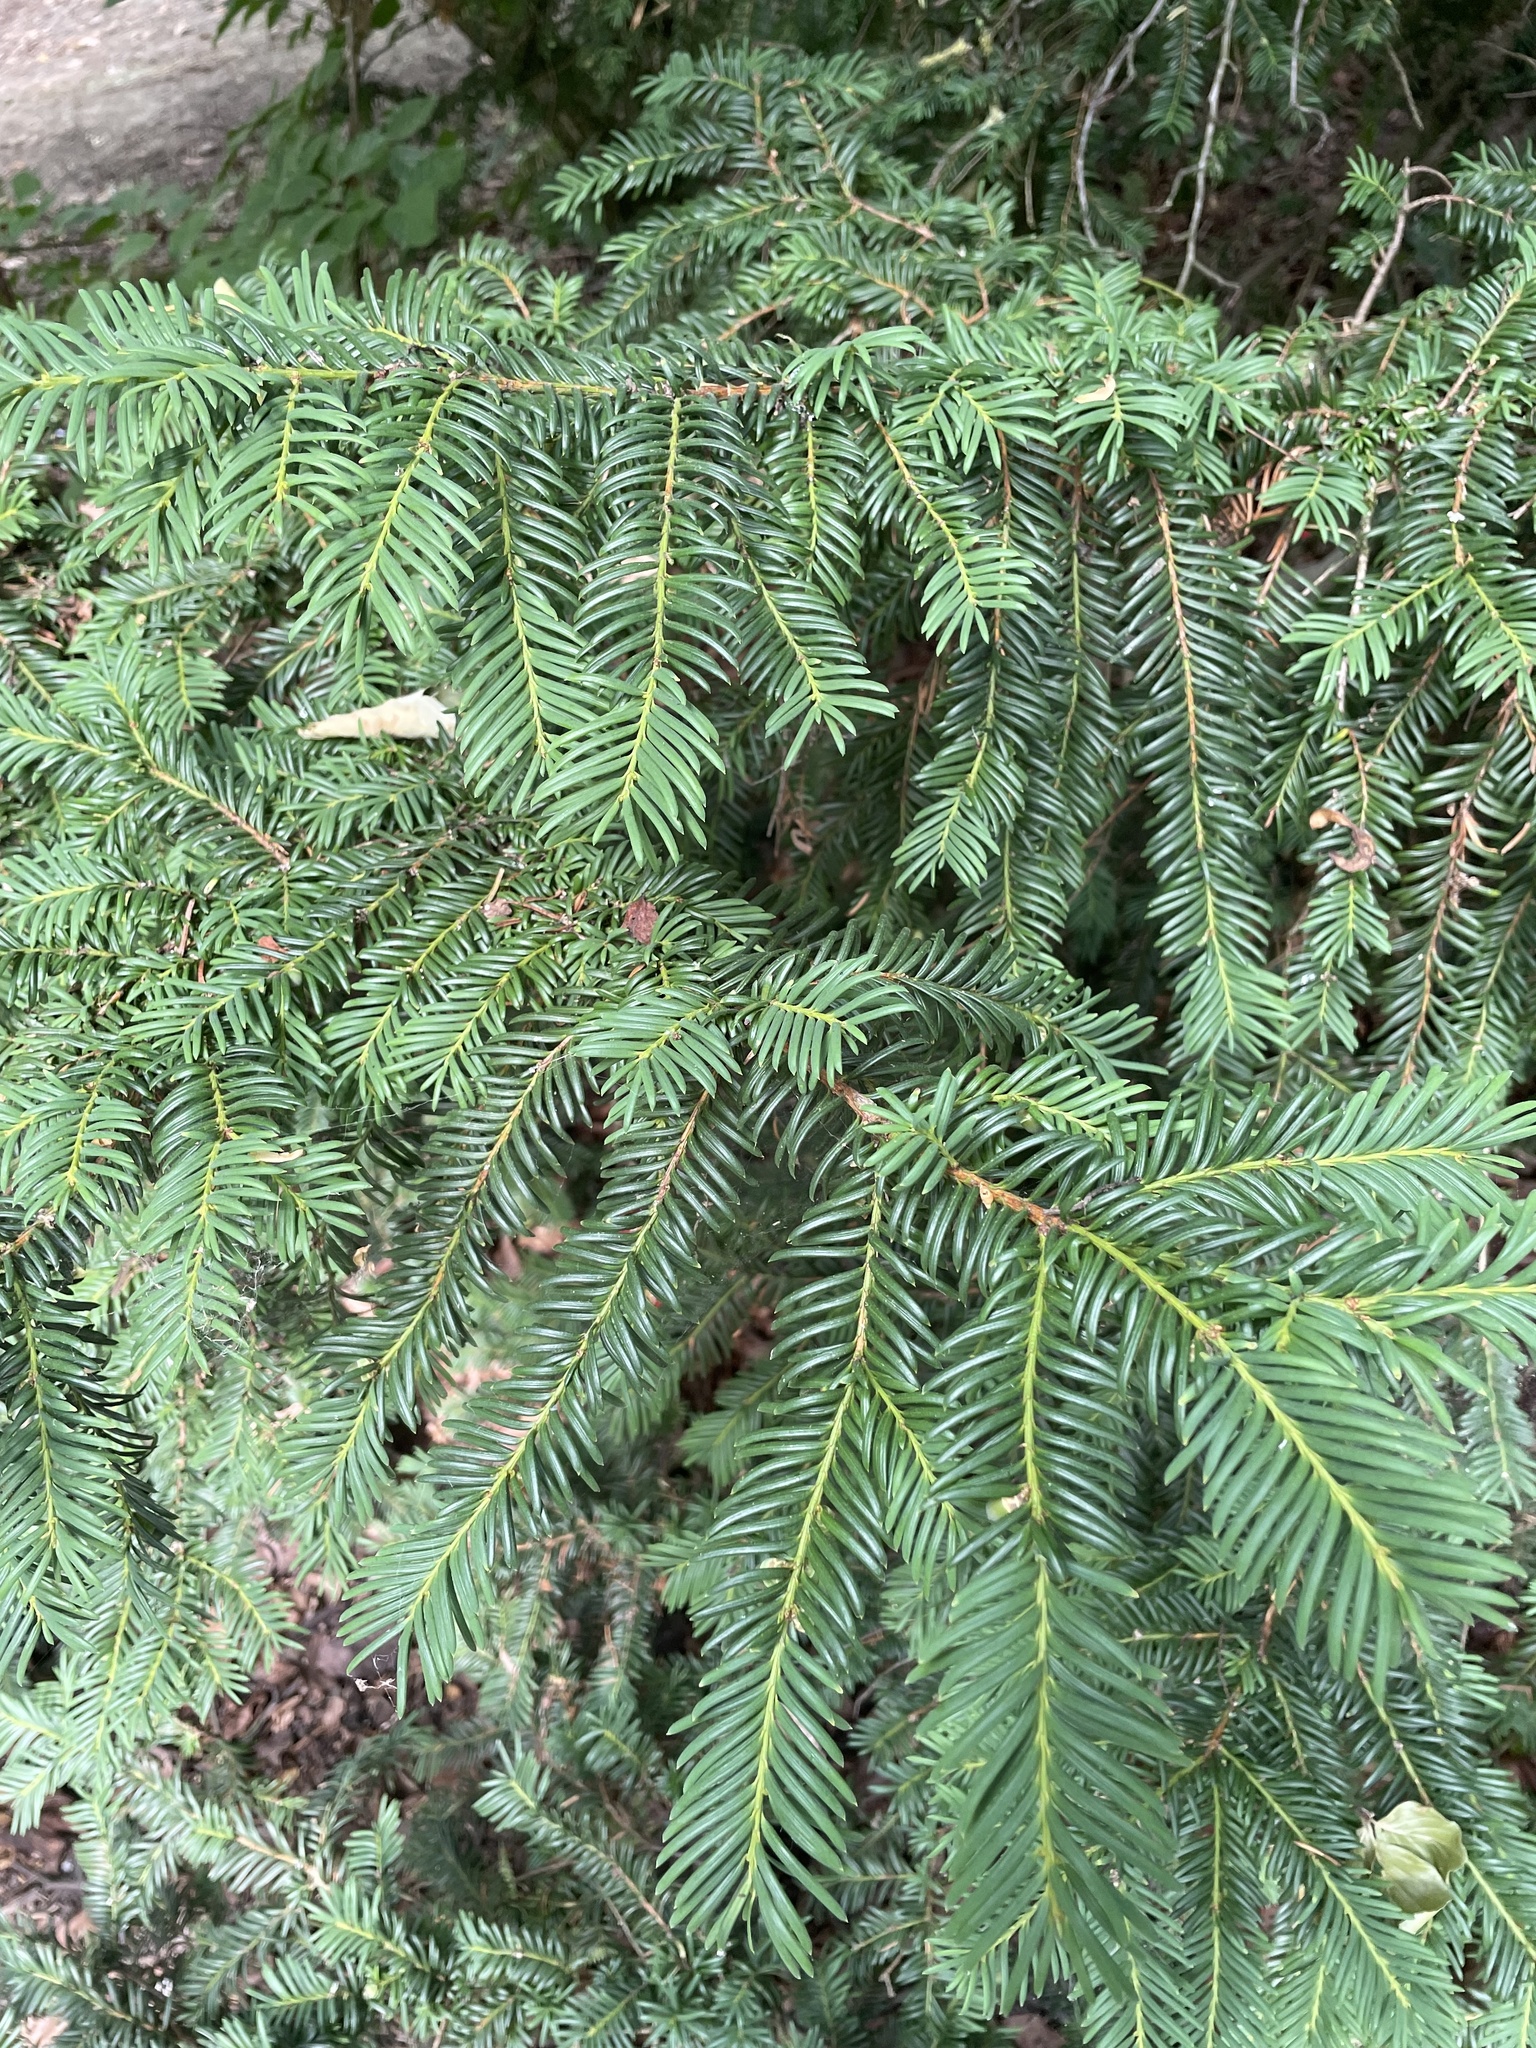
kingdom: Plantae
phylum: Tracheophyta
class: Pinopsida
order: Pinales
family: Taxaceae
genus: Taxus
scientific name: Taxus baccata
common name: Yew
